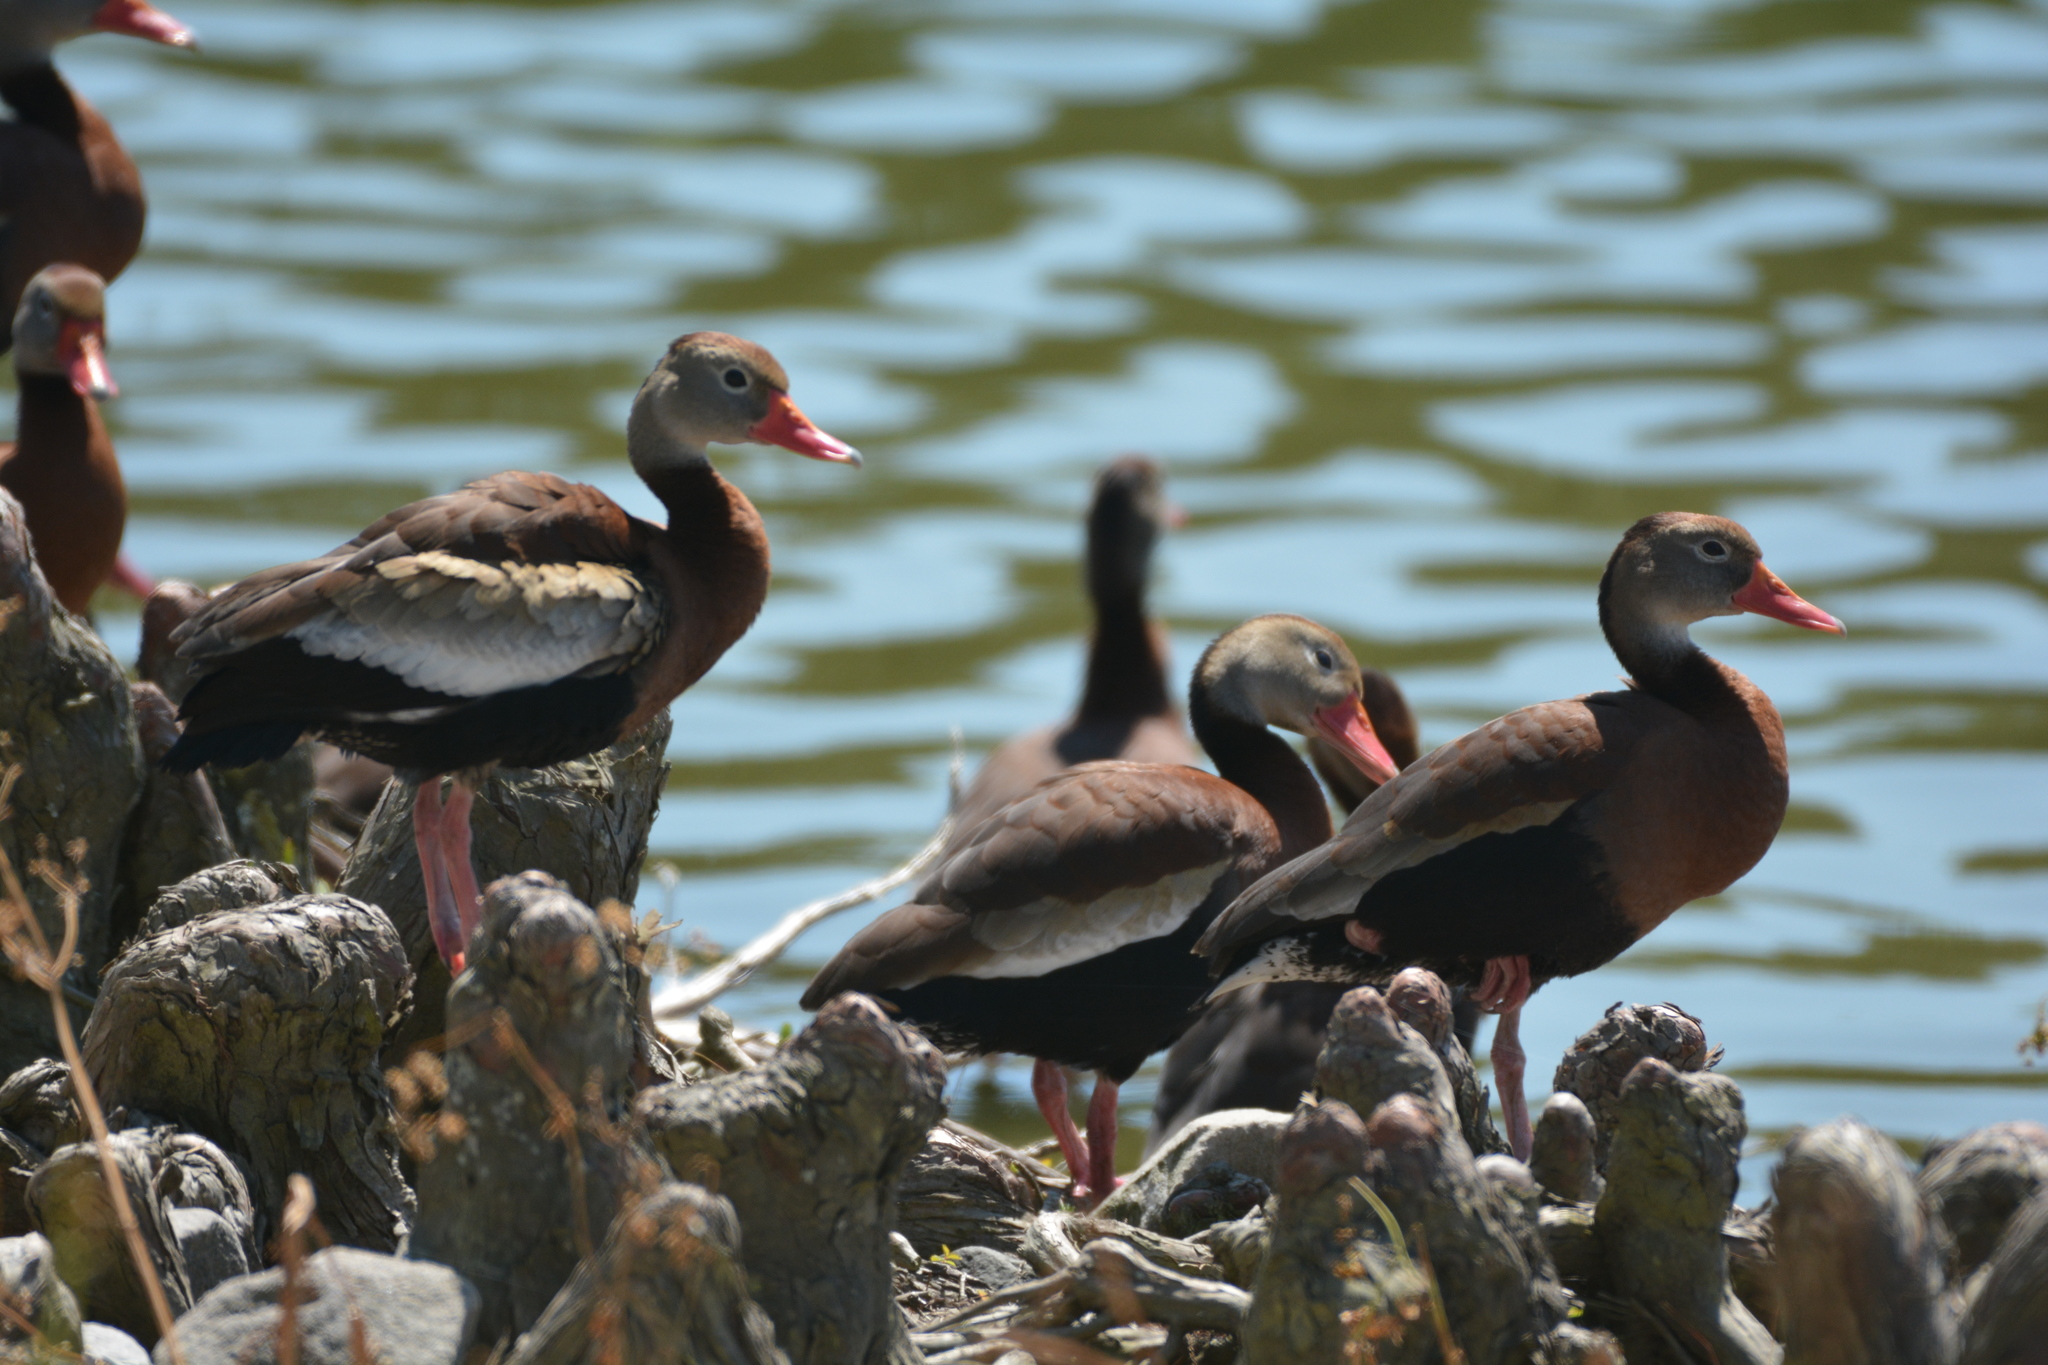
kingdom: Animalia
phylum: Chordata
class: Aves
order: Anseriformes
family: Anatidae
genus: Dendrocygna
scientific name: Dendrocygna autumnalis
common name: Black-bellied whistling duck
